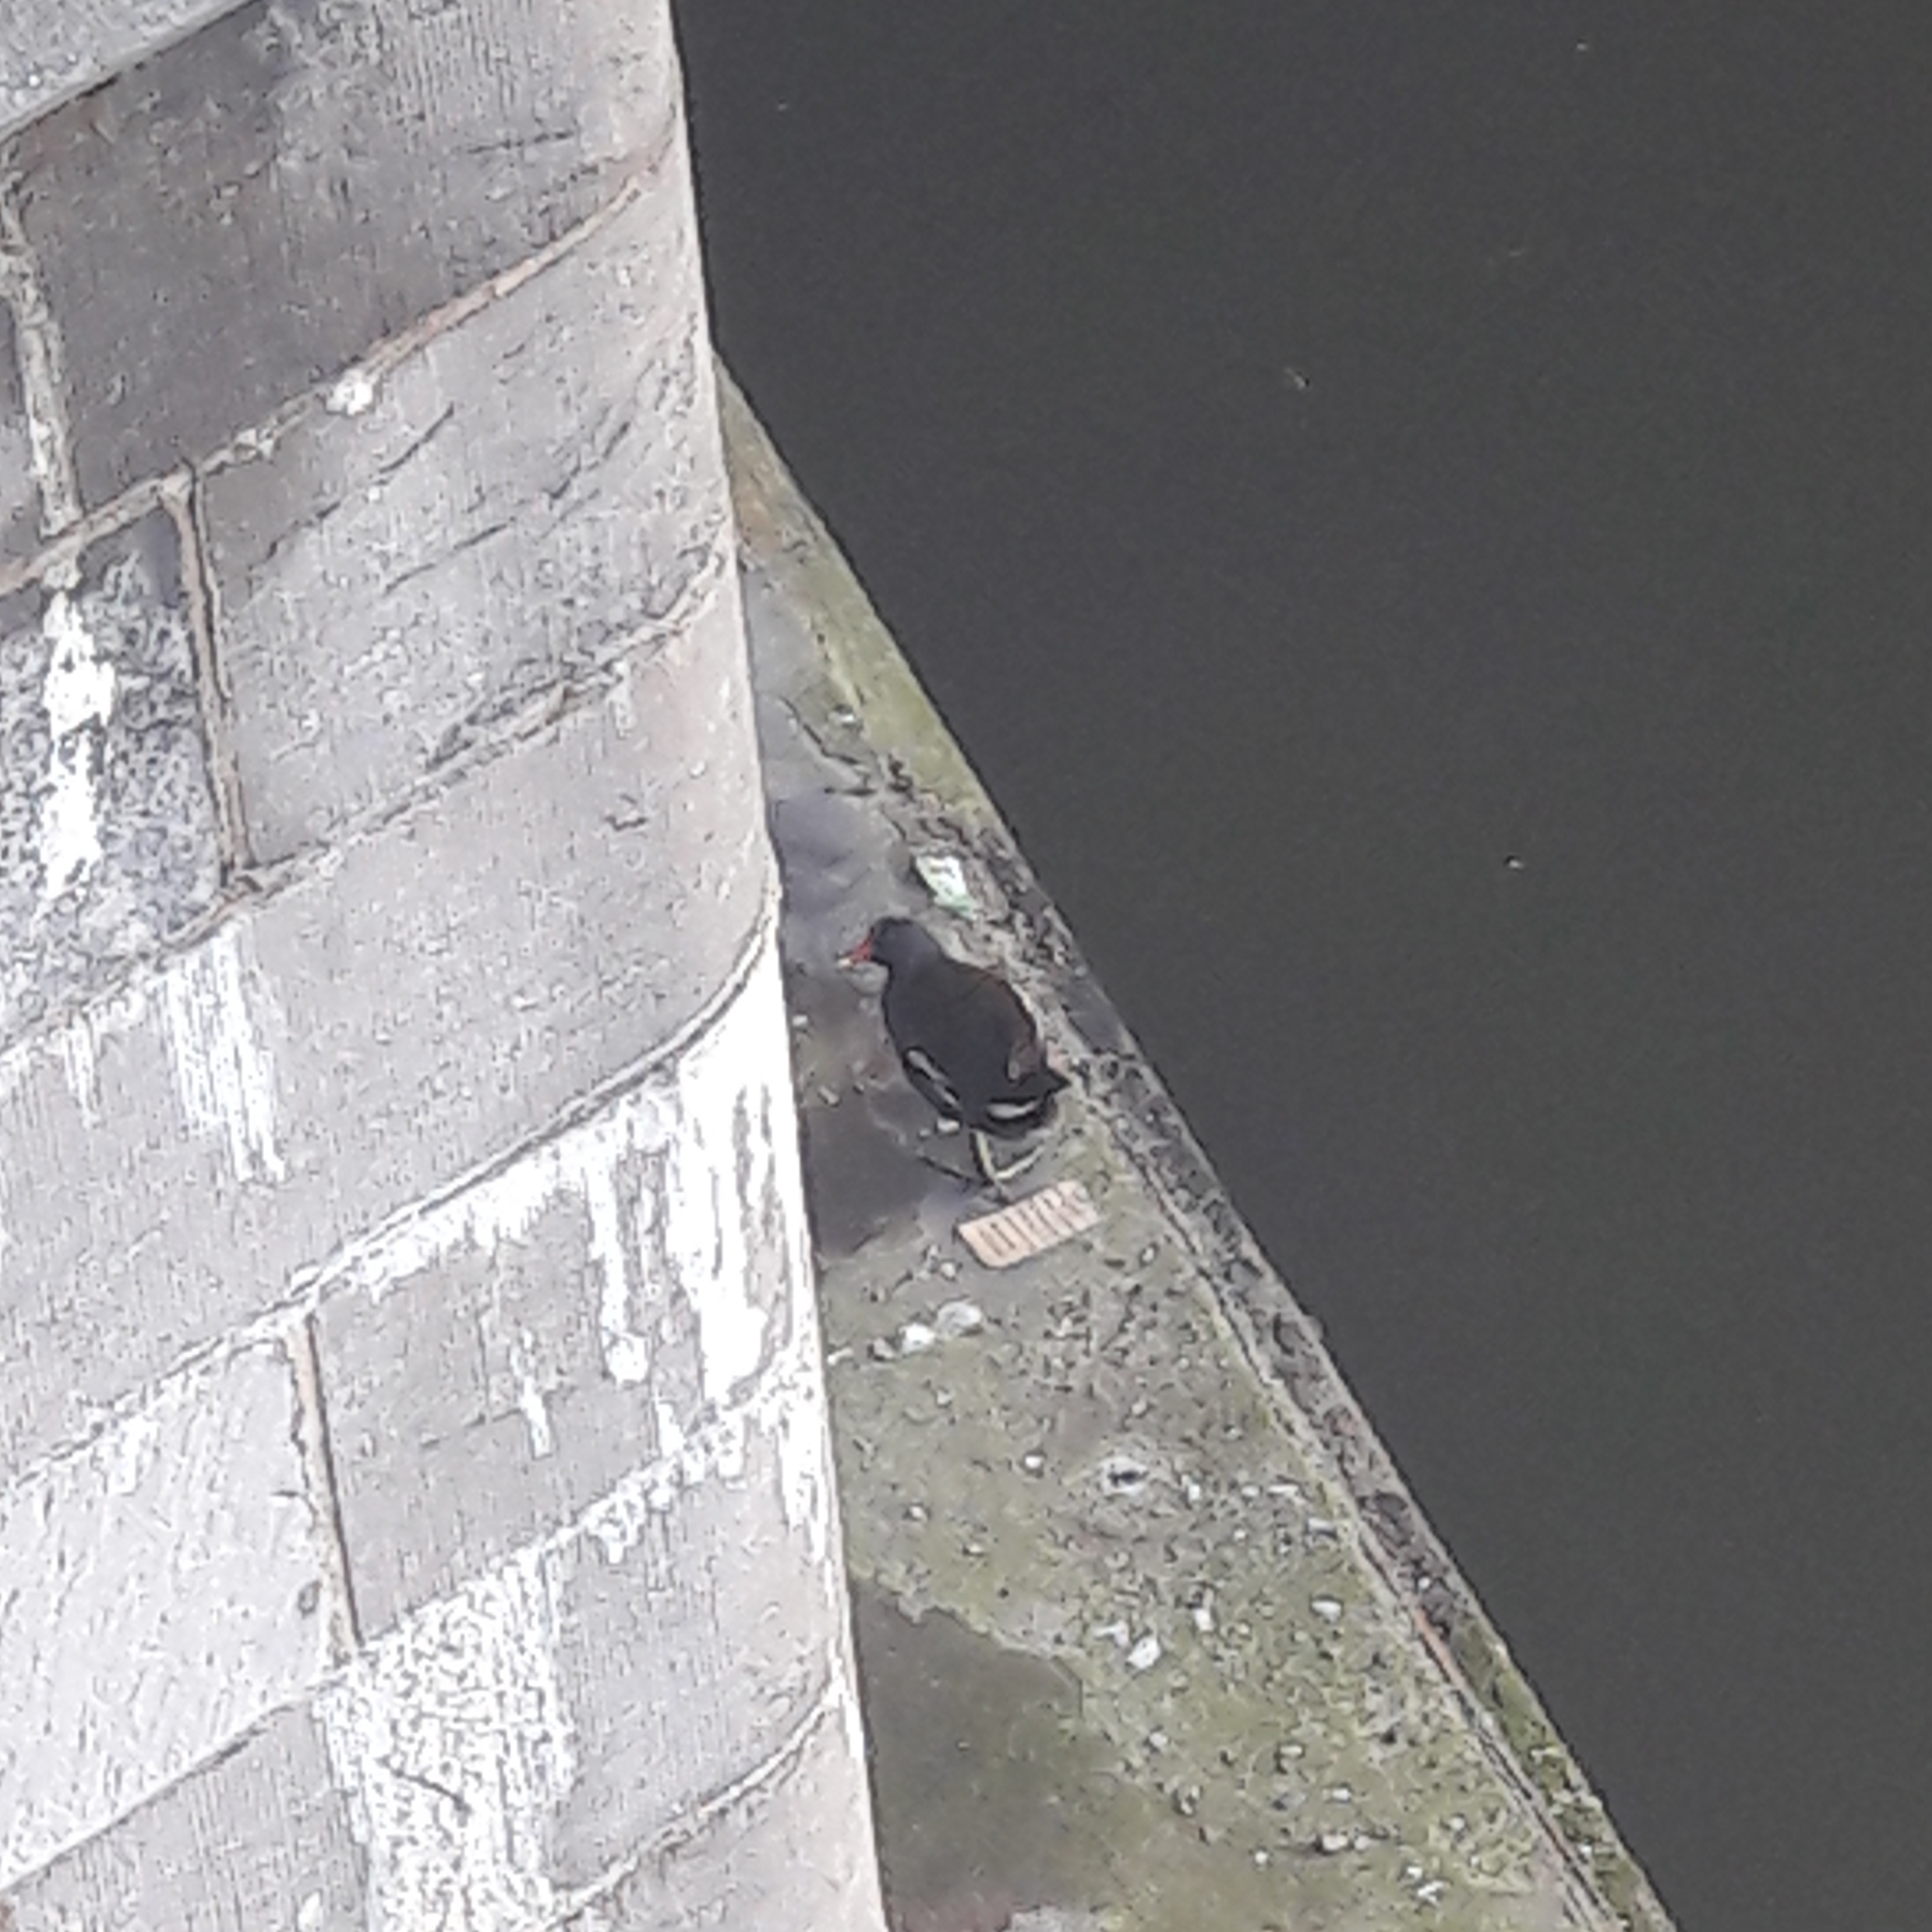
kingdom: Animalia
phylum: Chordata
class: Aves
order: Gruiformes
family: Rallidae
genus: Gallinula
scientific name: Gallinula chloropus
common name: Common moorhen
